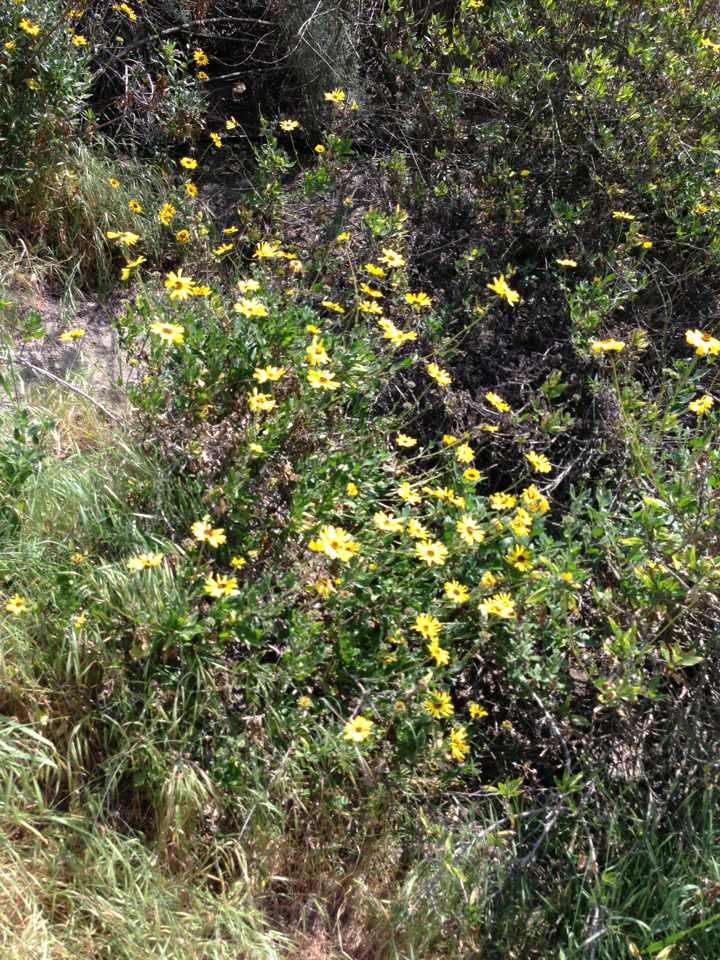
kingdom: Plantae
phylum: Tracheophyta
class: Magnoliopsida
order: Asterales
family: Asteraceae
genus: Encelia
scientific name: Encelia californica
